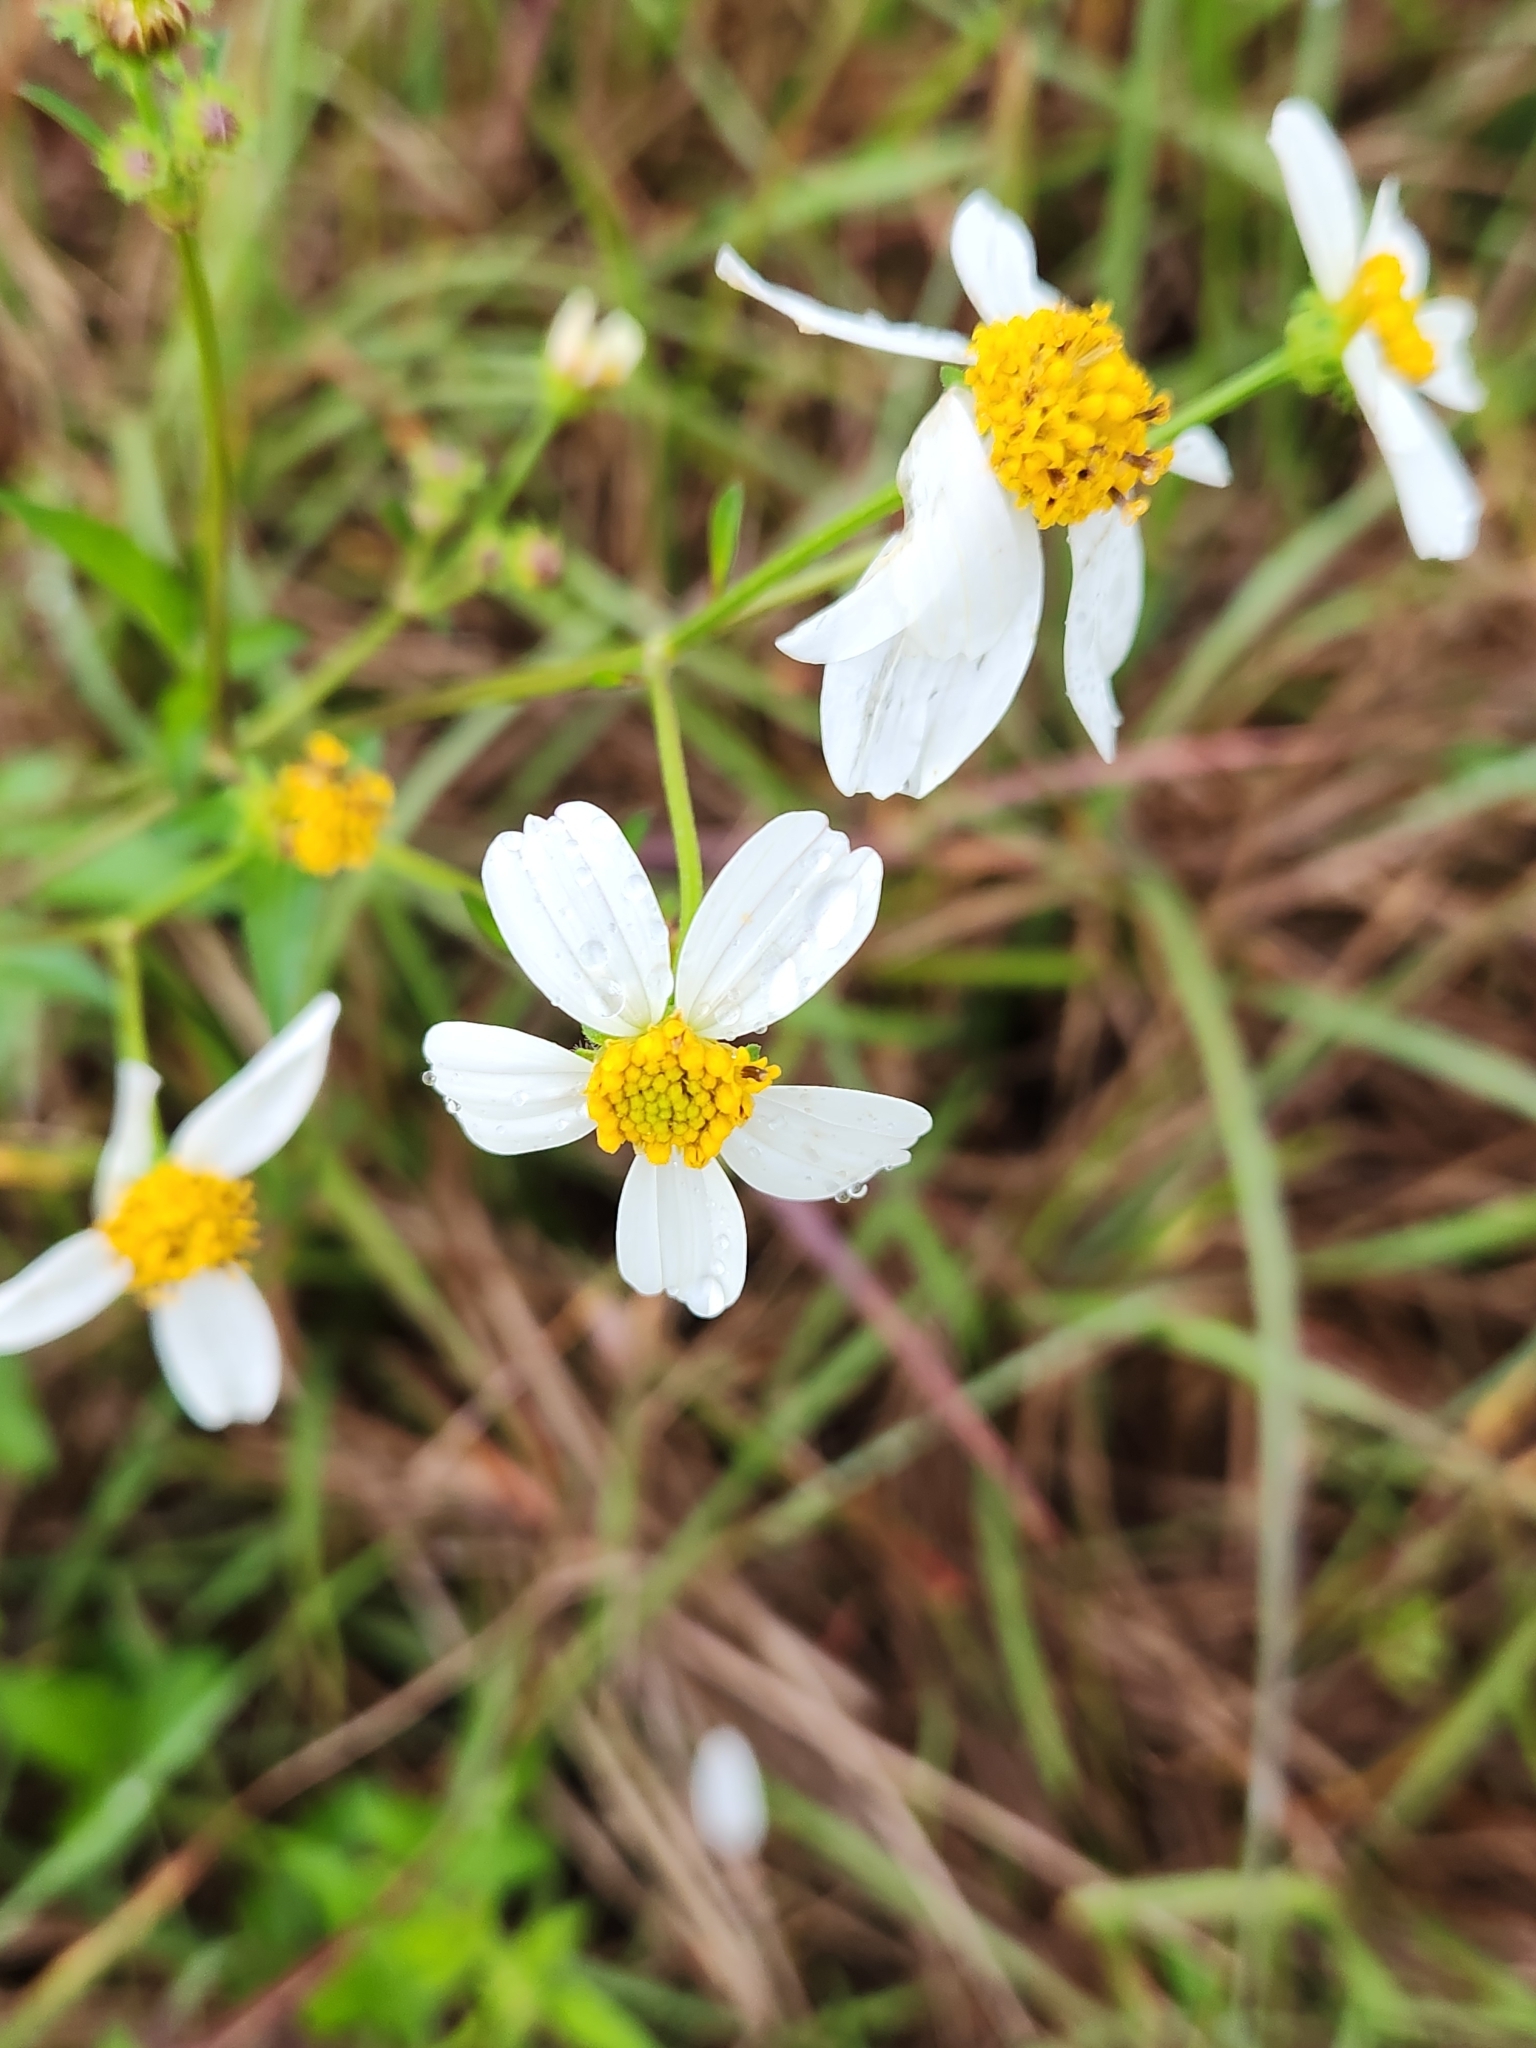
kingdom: Plantae
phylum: Tracheophyta
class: Magnoliopsida
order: Asterales
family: Asteraceae
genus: Bidens
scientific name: Bidens alba
